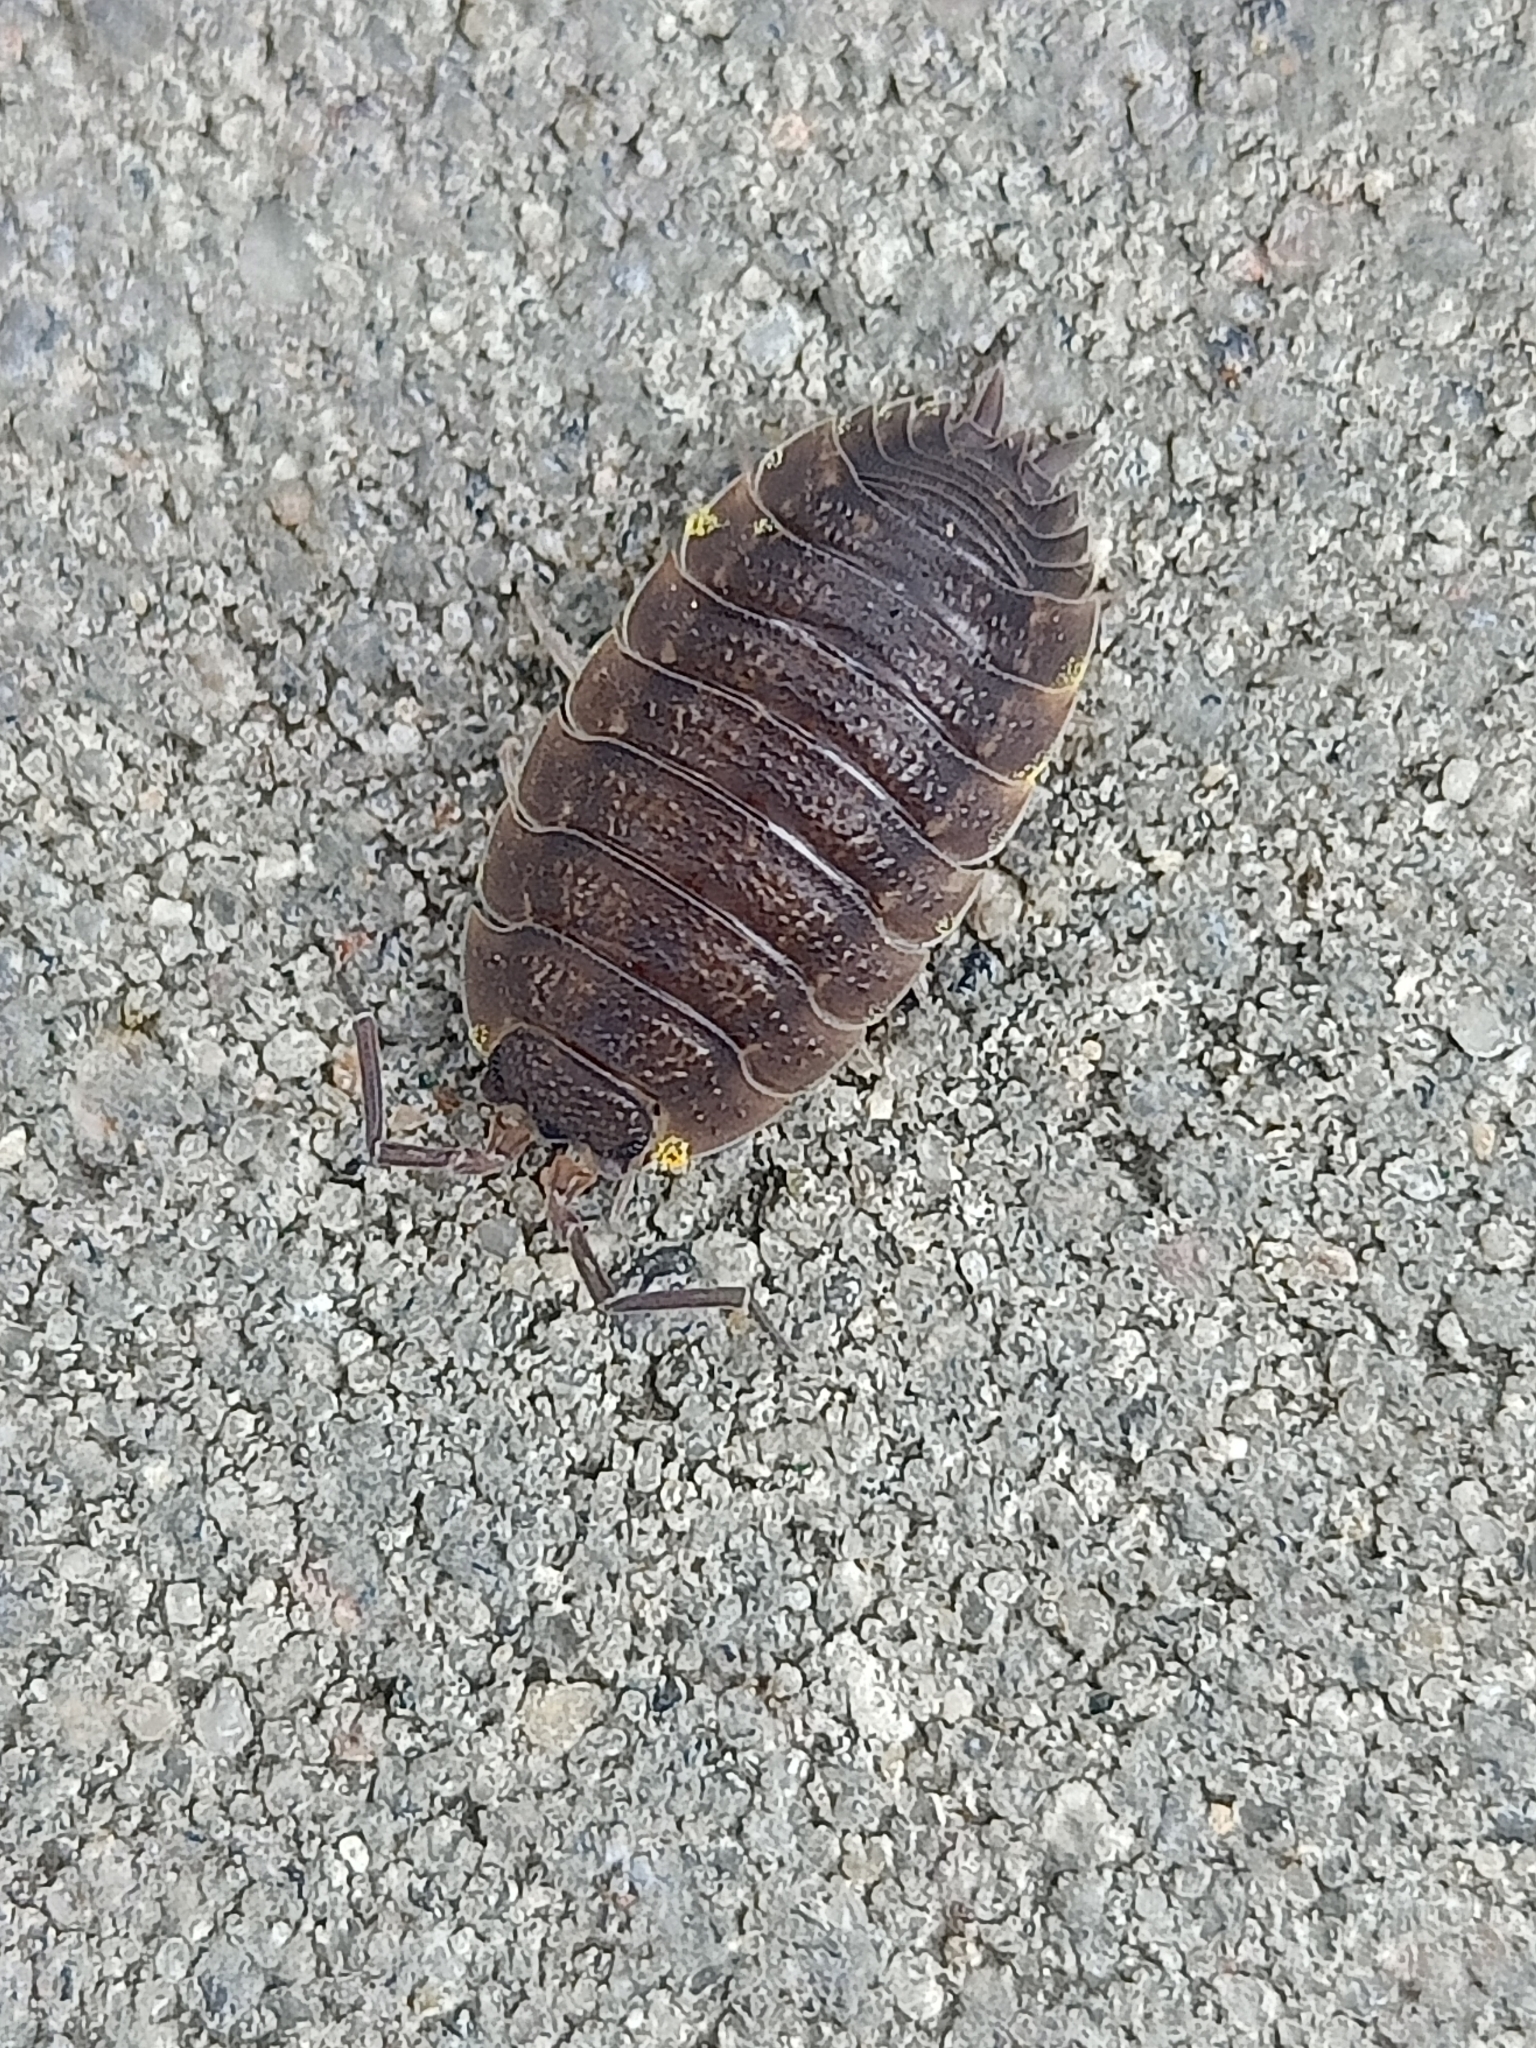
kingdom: Animalia
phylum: Arthropoda
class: Malacostraca
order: Isopoda
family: Porcellionidae
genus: Porcellio
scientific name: Porcellio scaber
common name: Common rough woodlouse
